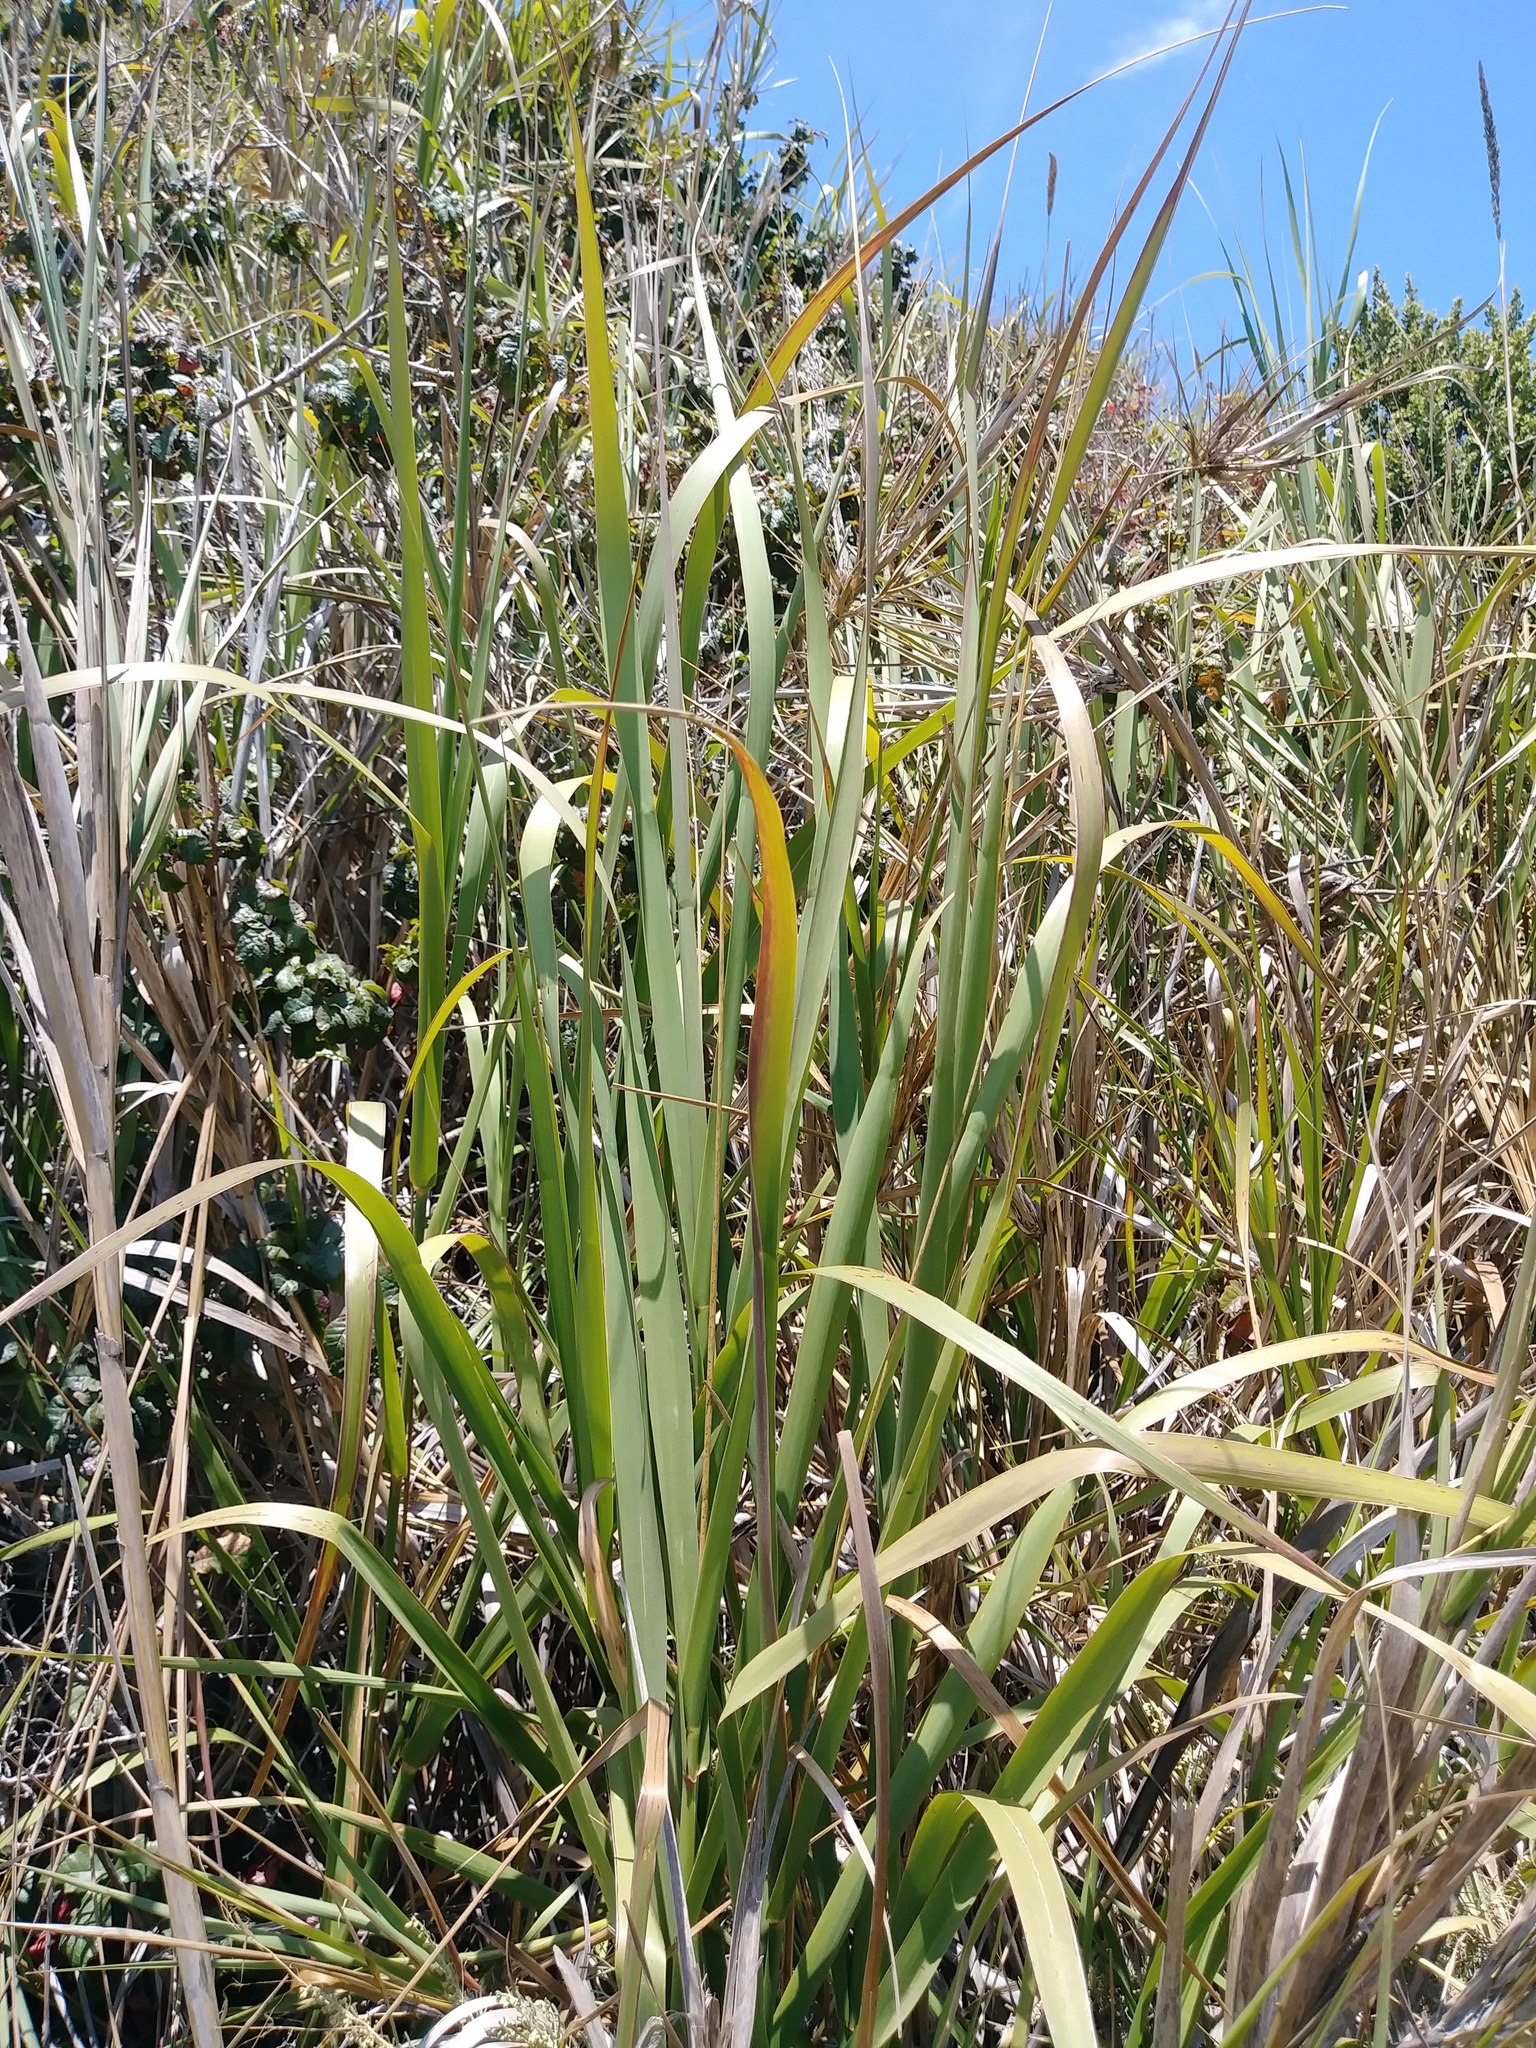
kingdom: Plantae
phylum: Tracheophyta
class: Liliopsida
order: Poales
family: Poaceae
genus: Leymus
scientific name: Leymus condensatus
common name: Giant wild rye
